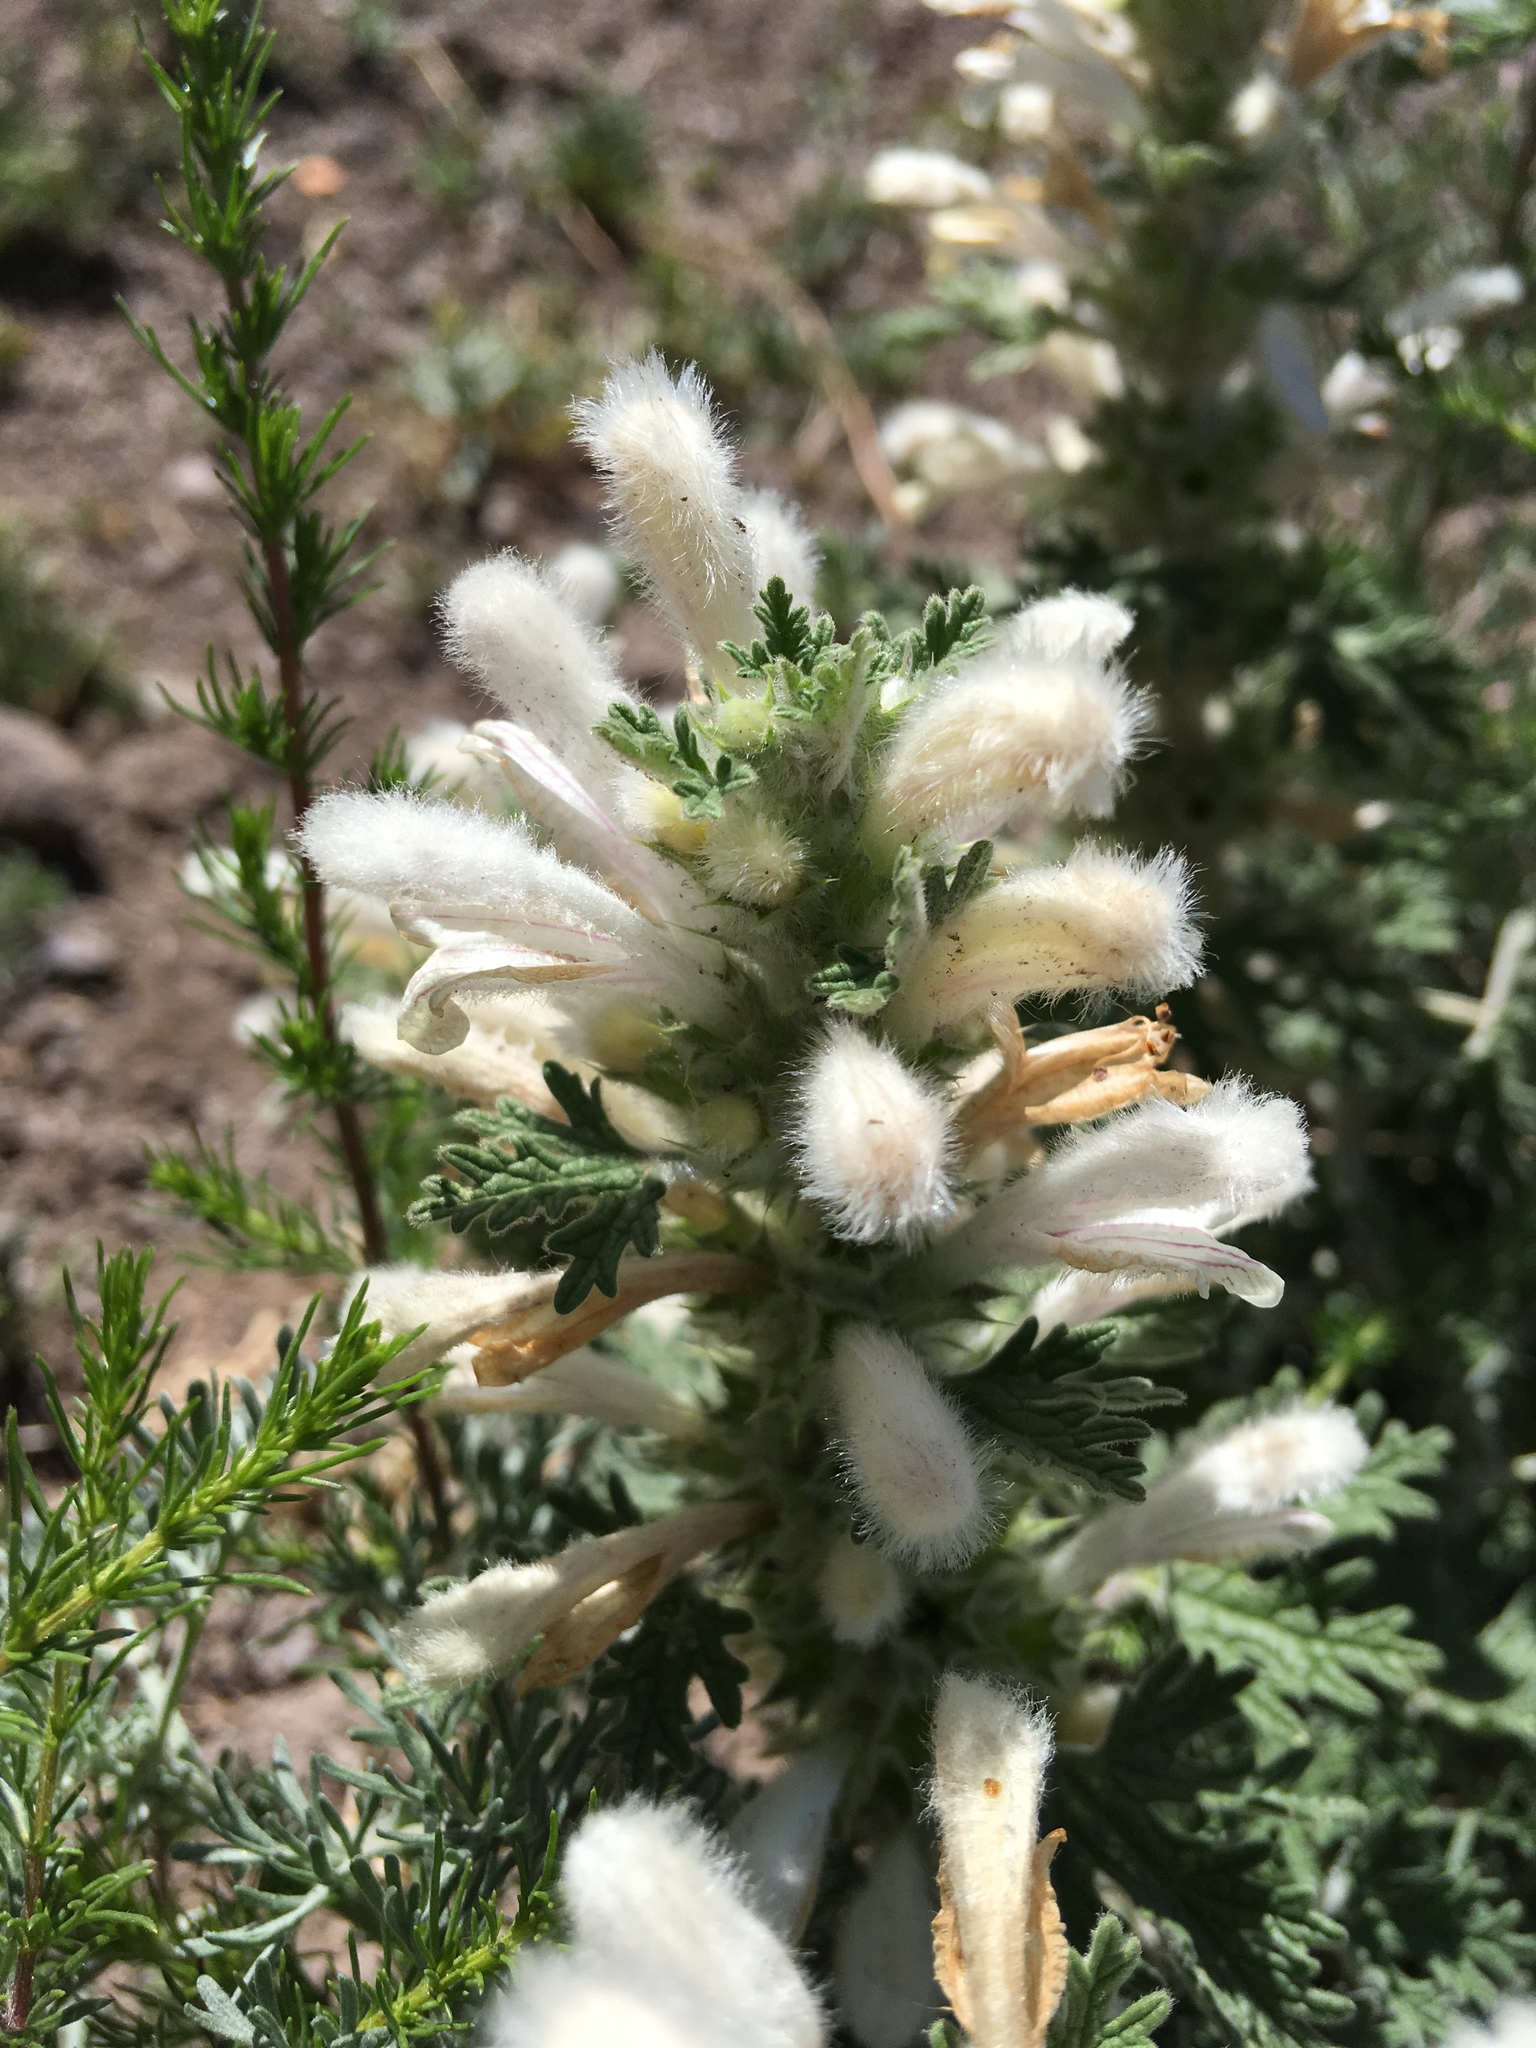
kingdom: Plantae
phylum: Tracheophyta
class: Magnoliopsida
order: Lamiales
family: Lamiaceae
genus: Panzerina
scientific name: Panzerina lanata
